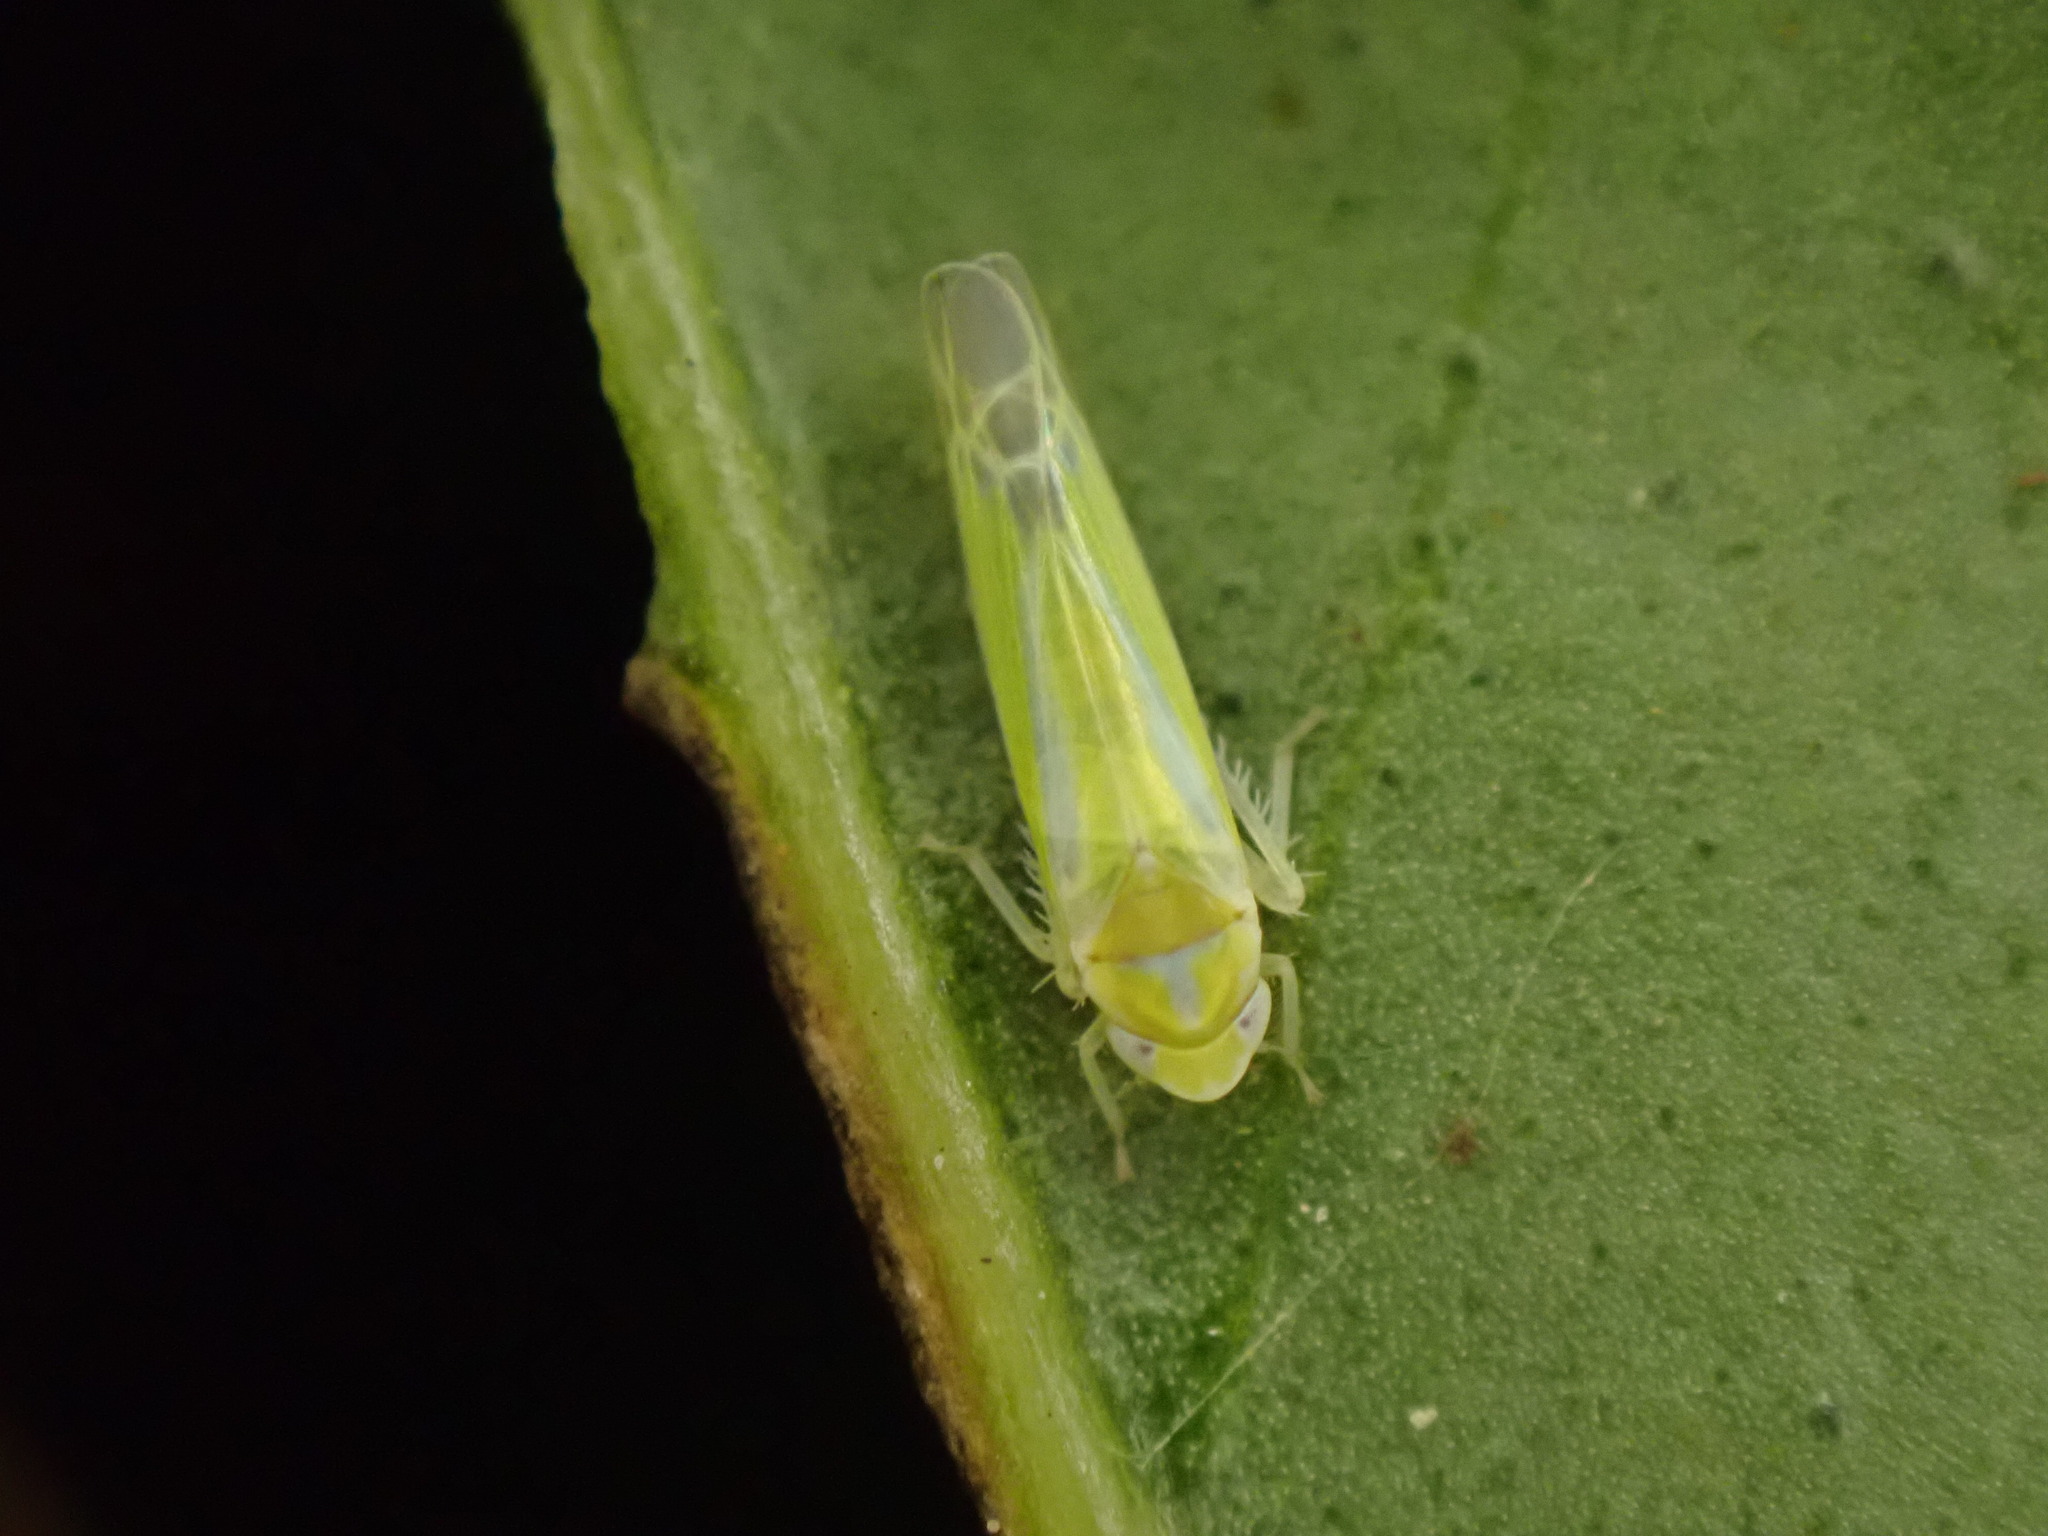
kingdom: Animalia
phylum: Arthropoda
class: Insecta
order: Hemiptera
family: Cicadellidae
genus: Lindbergina
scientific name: Lindbergina aurovittata
